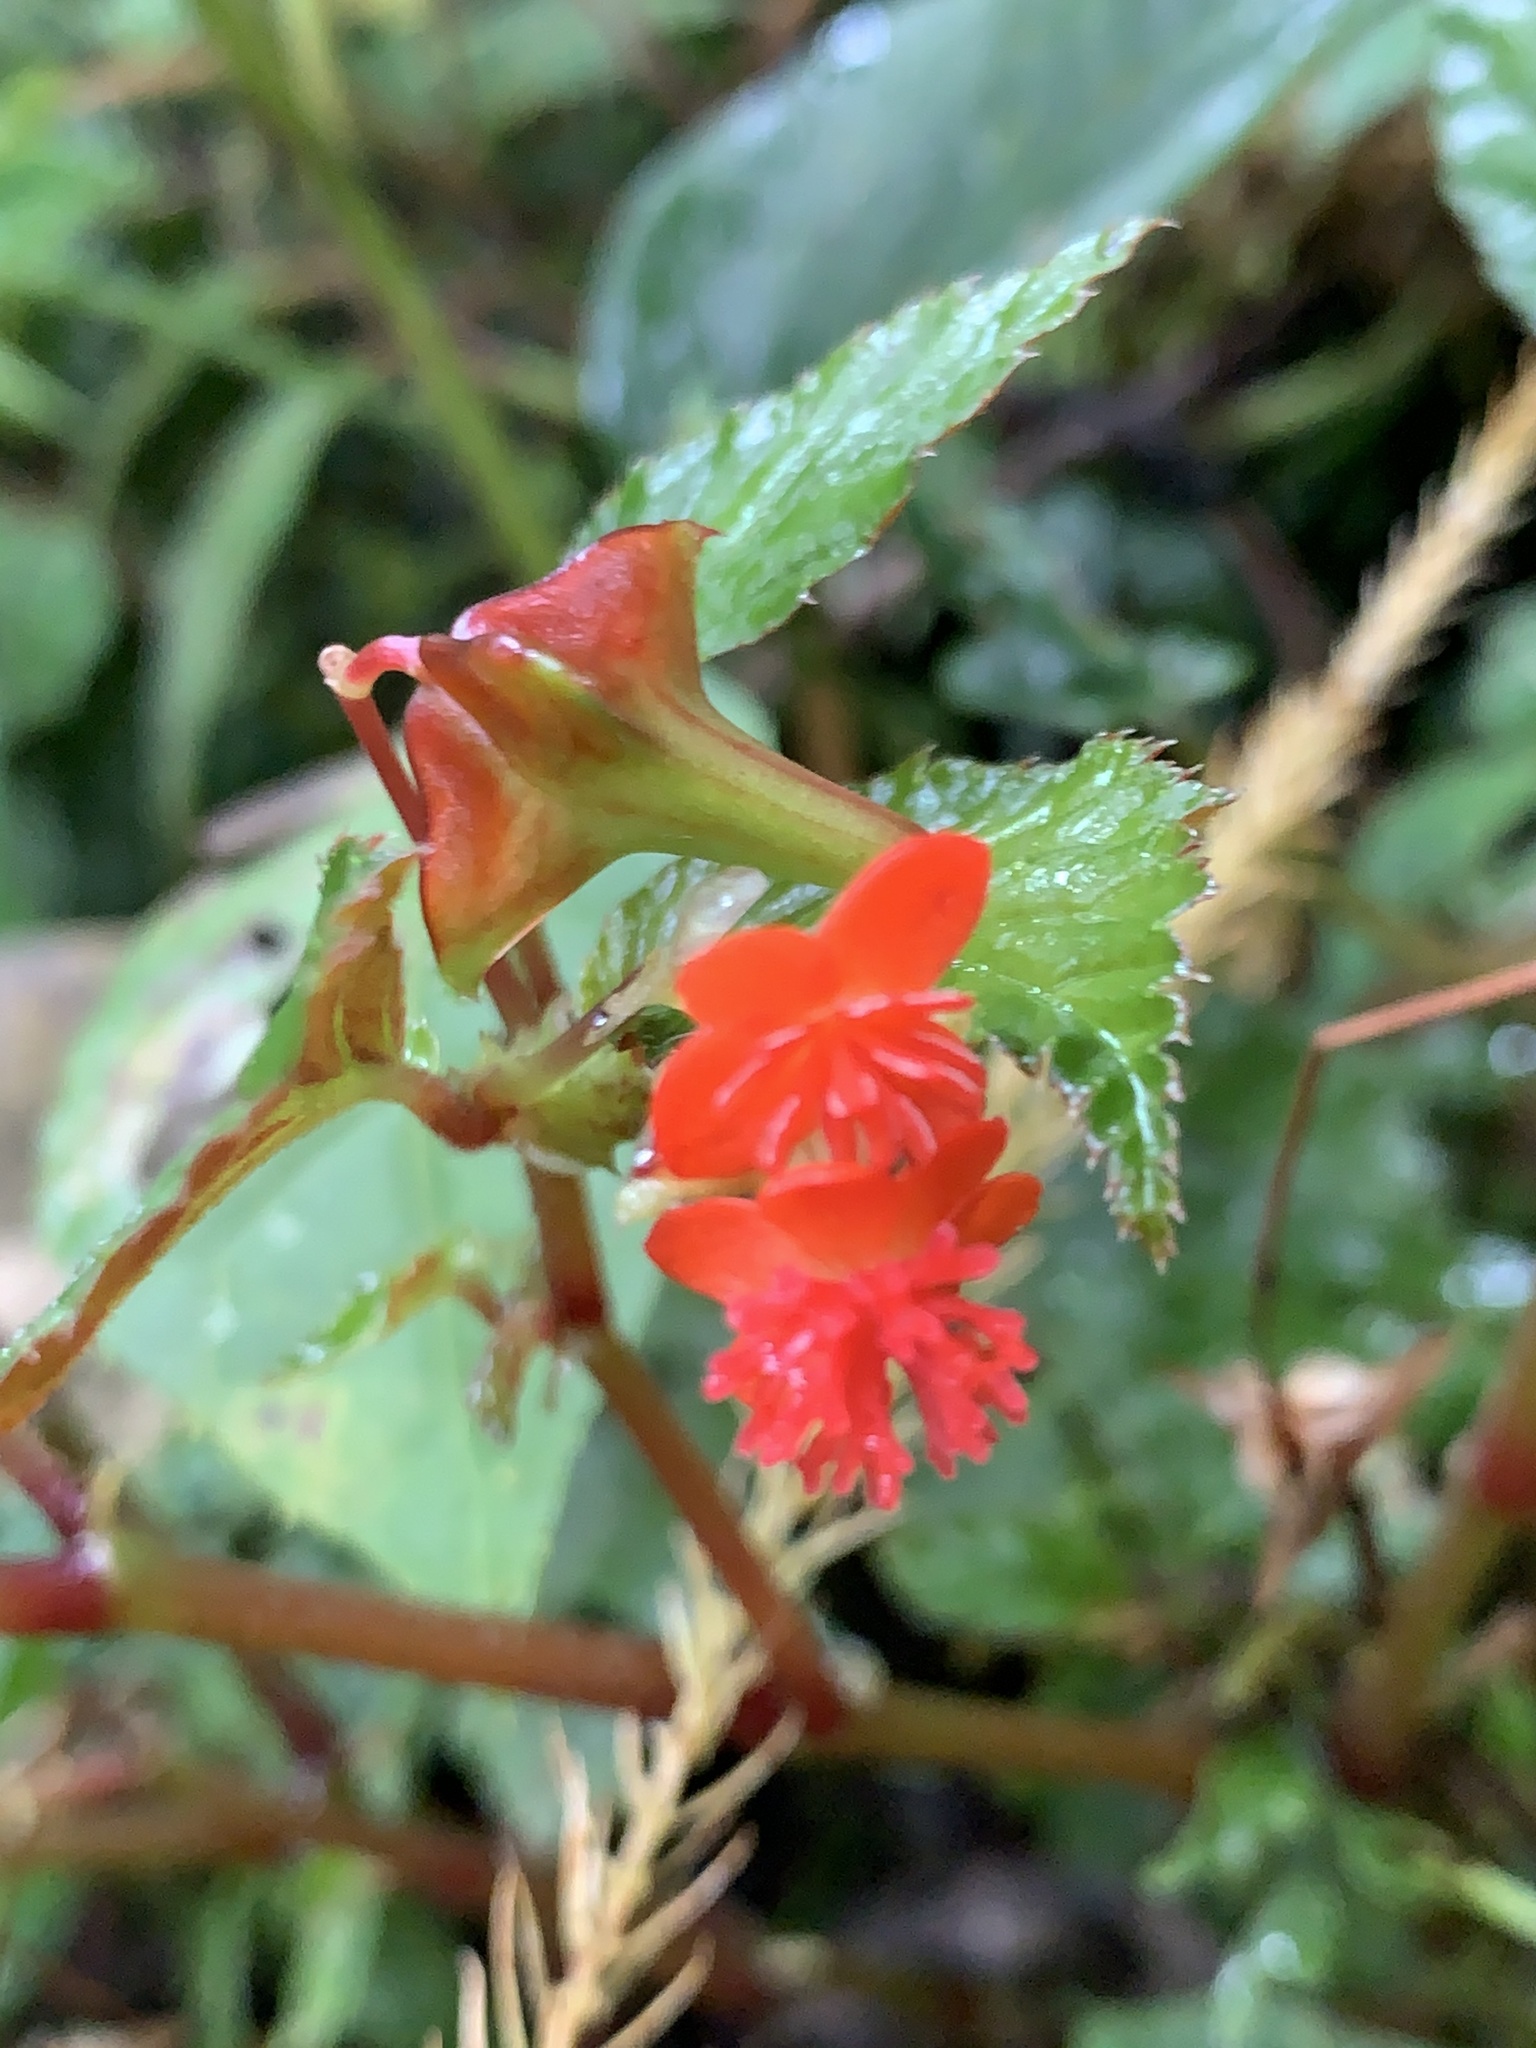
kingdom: Plantae
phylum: Tracheophyta
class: Magnoliopsida
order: Cucurbitales
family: Begoniaceae
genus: Begonia
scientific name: Begonia urticae
